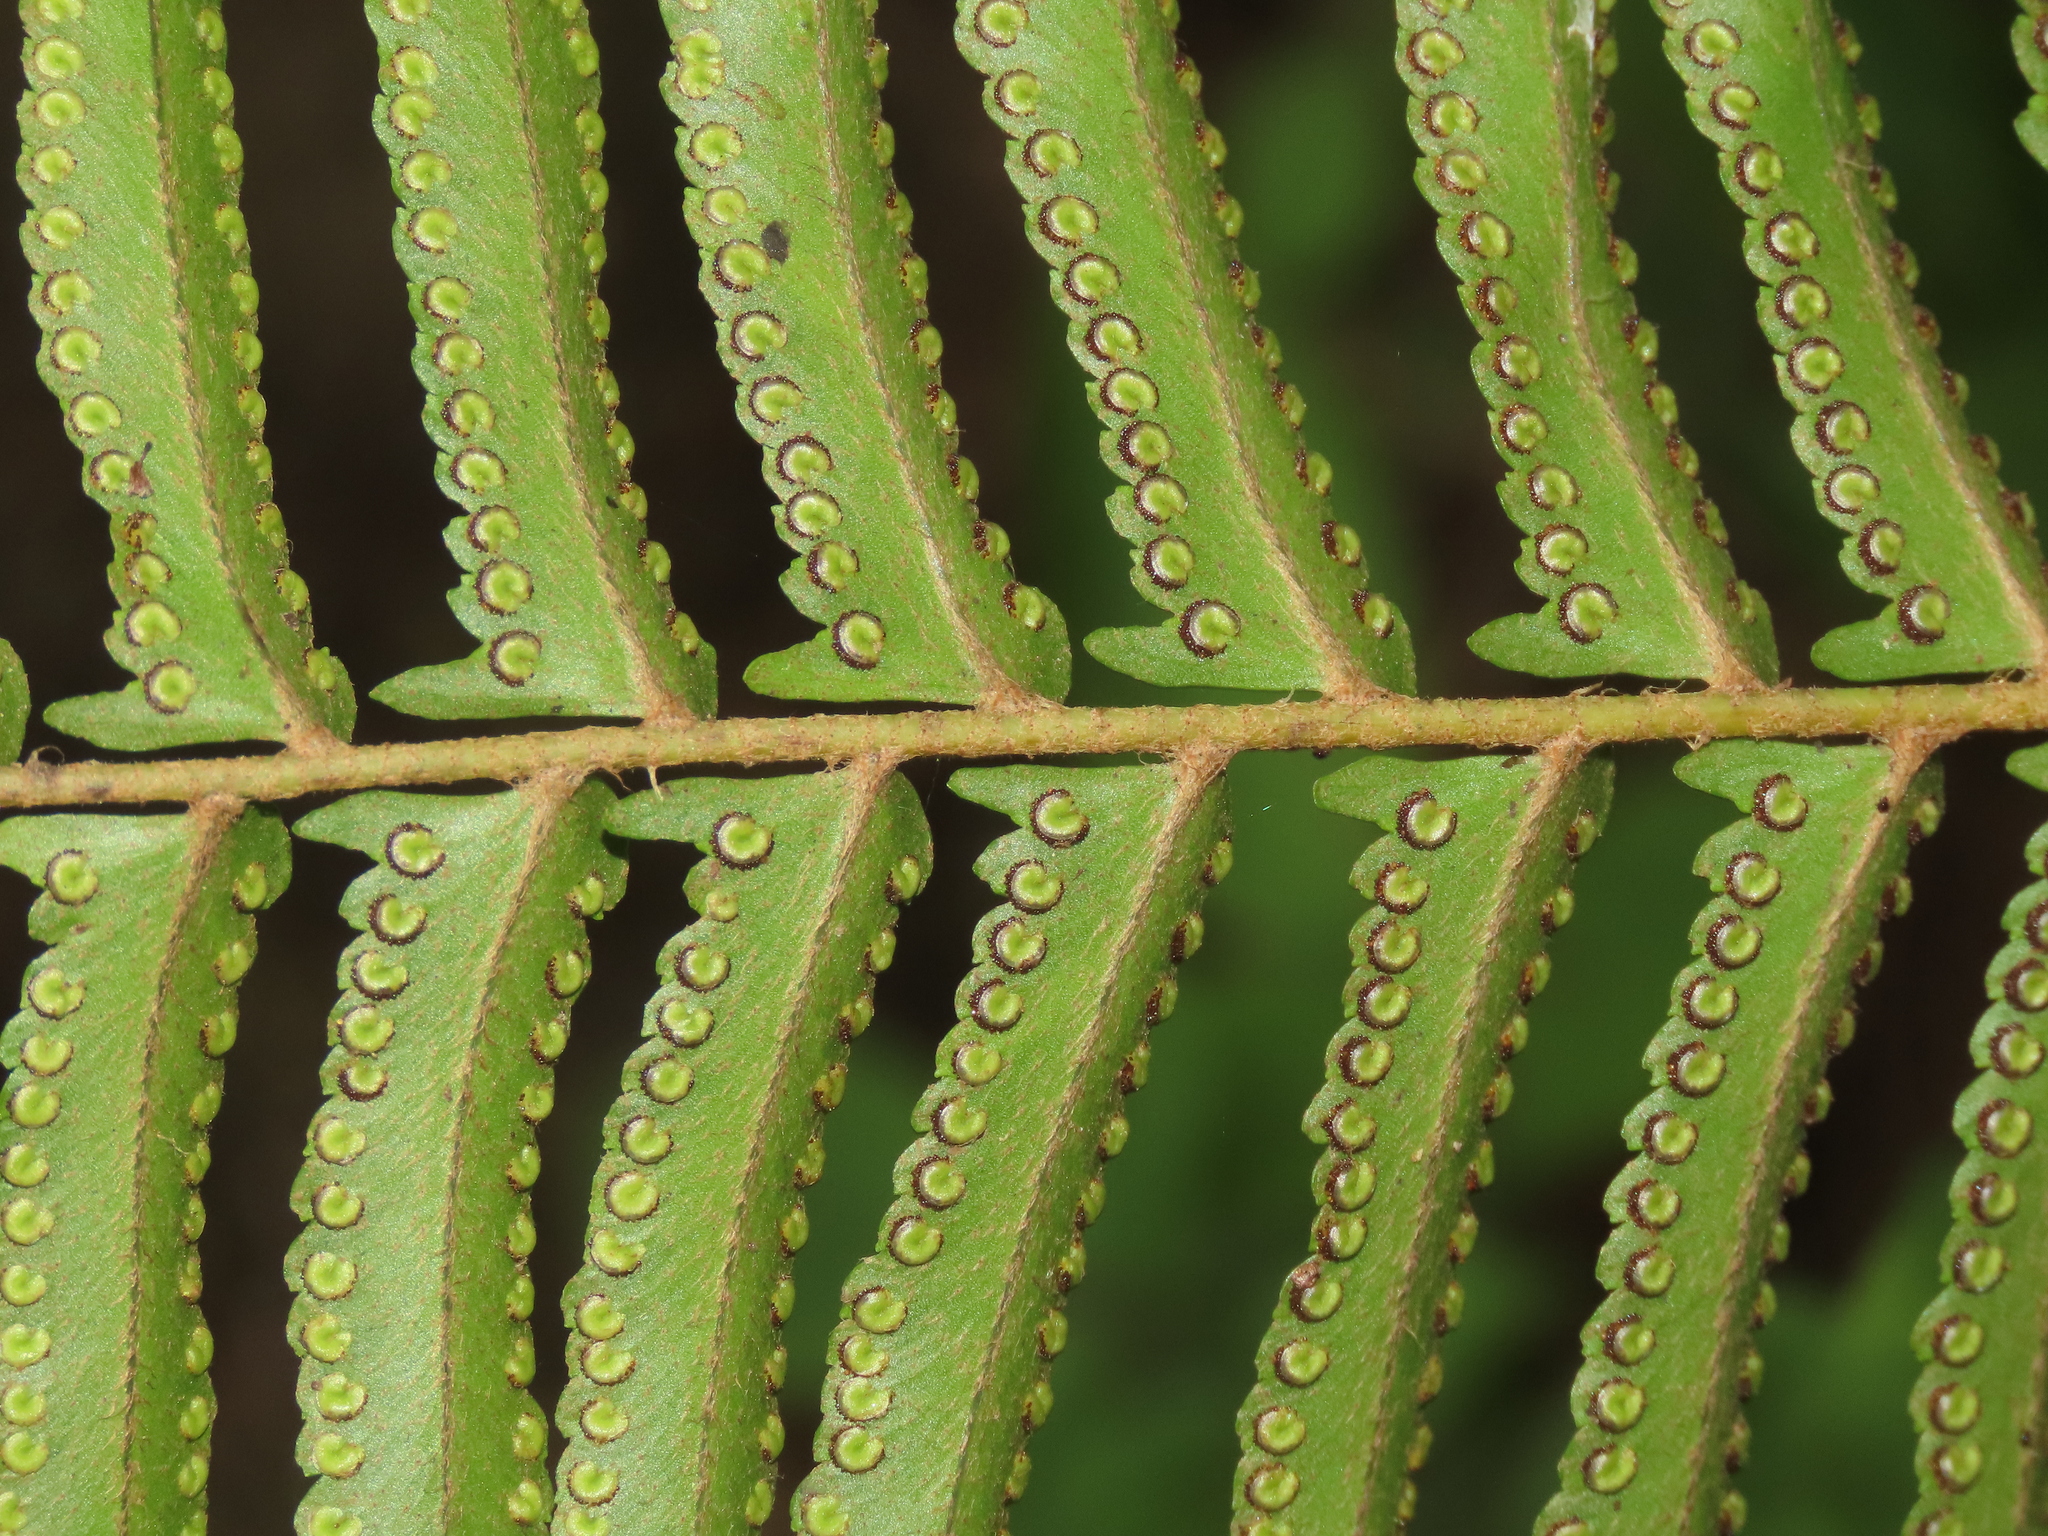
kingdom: Plantae
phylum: Tracheophyta
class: Polypodiopsida
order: Polypodiales
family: Nephrolepidaceae
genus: Nephrolepis
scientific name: Nephrolepis brownii
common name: Asian swordfern
